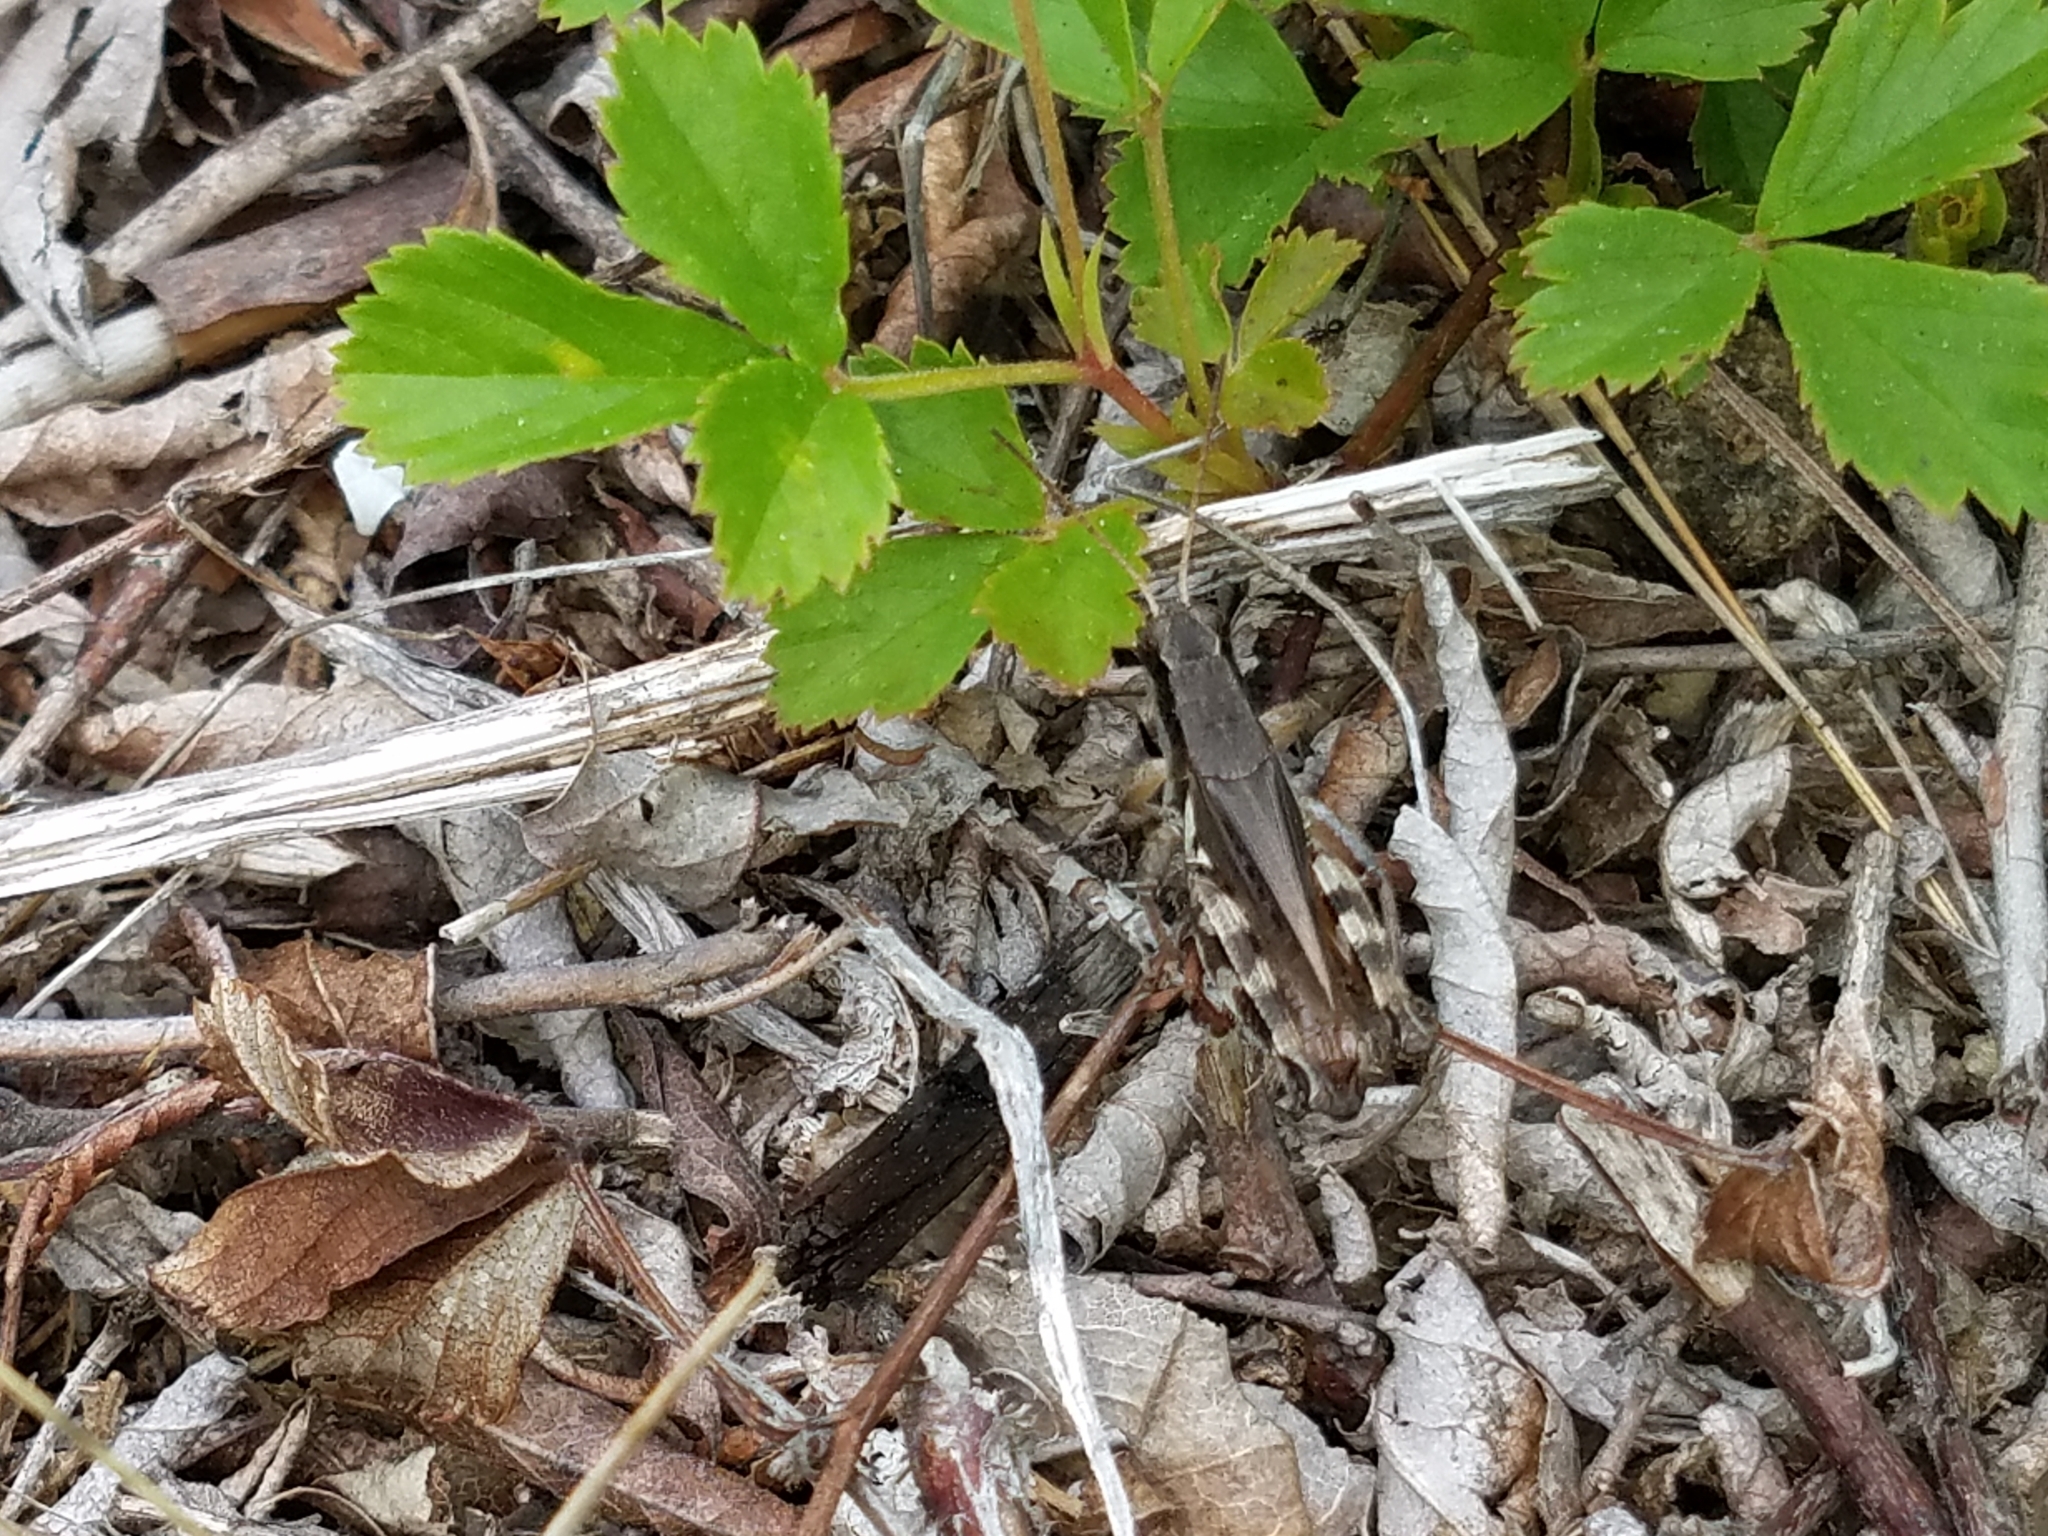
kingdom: Animalia
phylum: Arthropoda
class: Insecta
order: Orthoptera
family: Acrididae
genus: Melanoplus
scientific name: Melanoplus fasciatus
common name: Huckleberry locust
